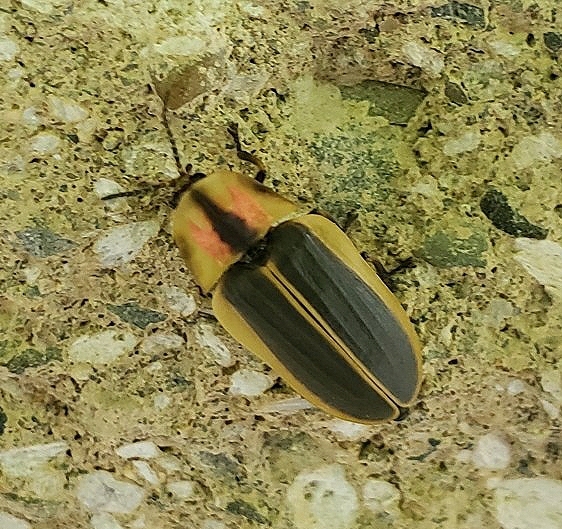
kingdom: Animalia
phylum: Arthropoda
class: Insecta
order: Coleoptera
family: Lampyridae
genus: Pyractomena
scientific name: Pyractomena angulata
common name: Candle firefly
